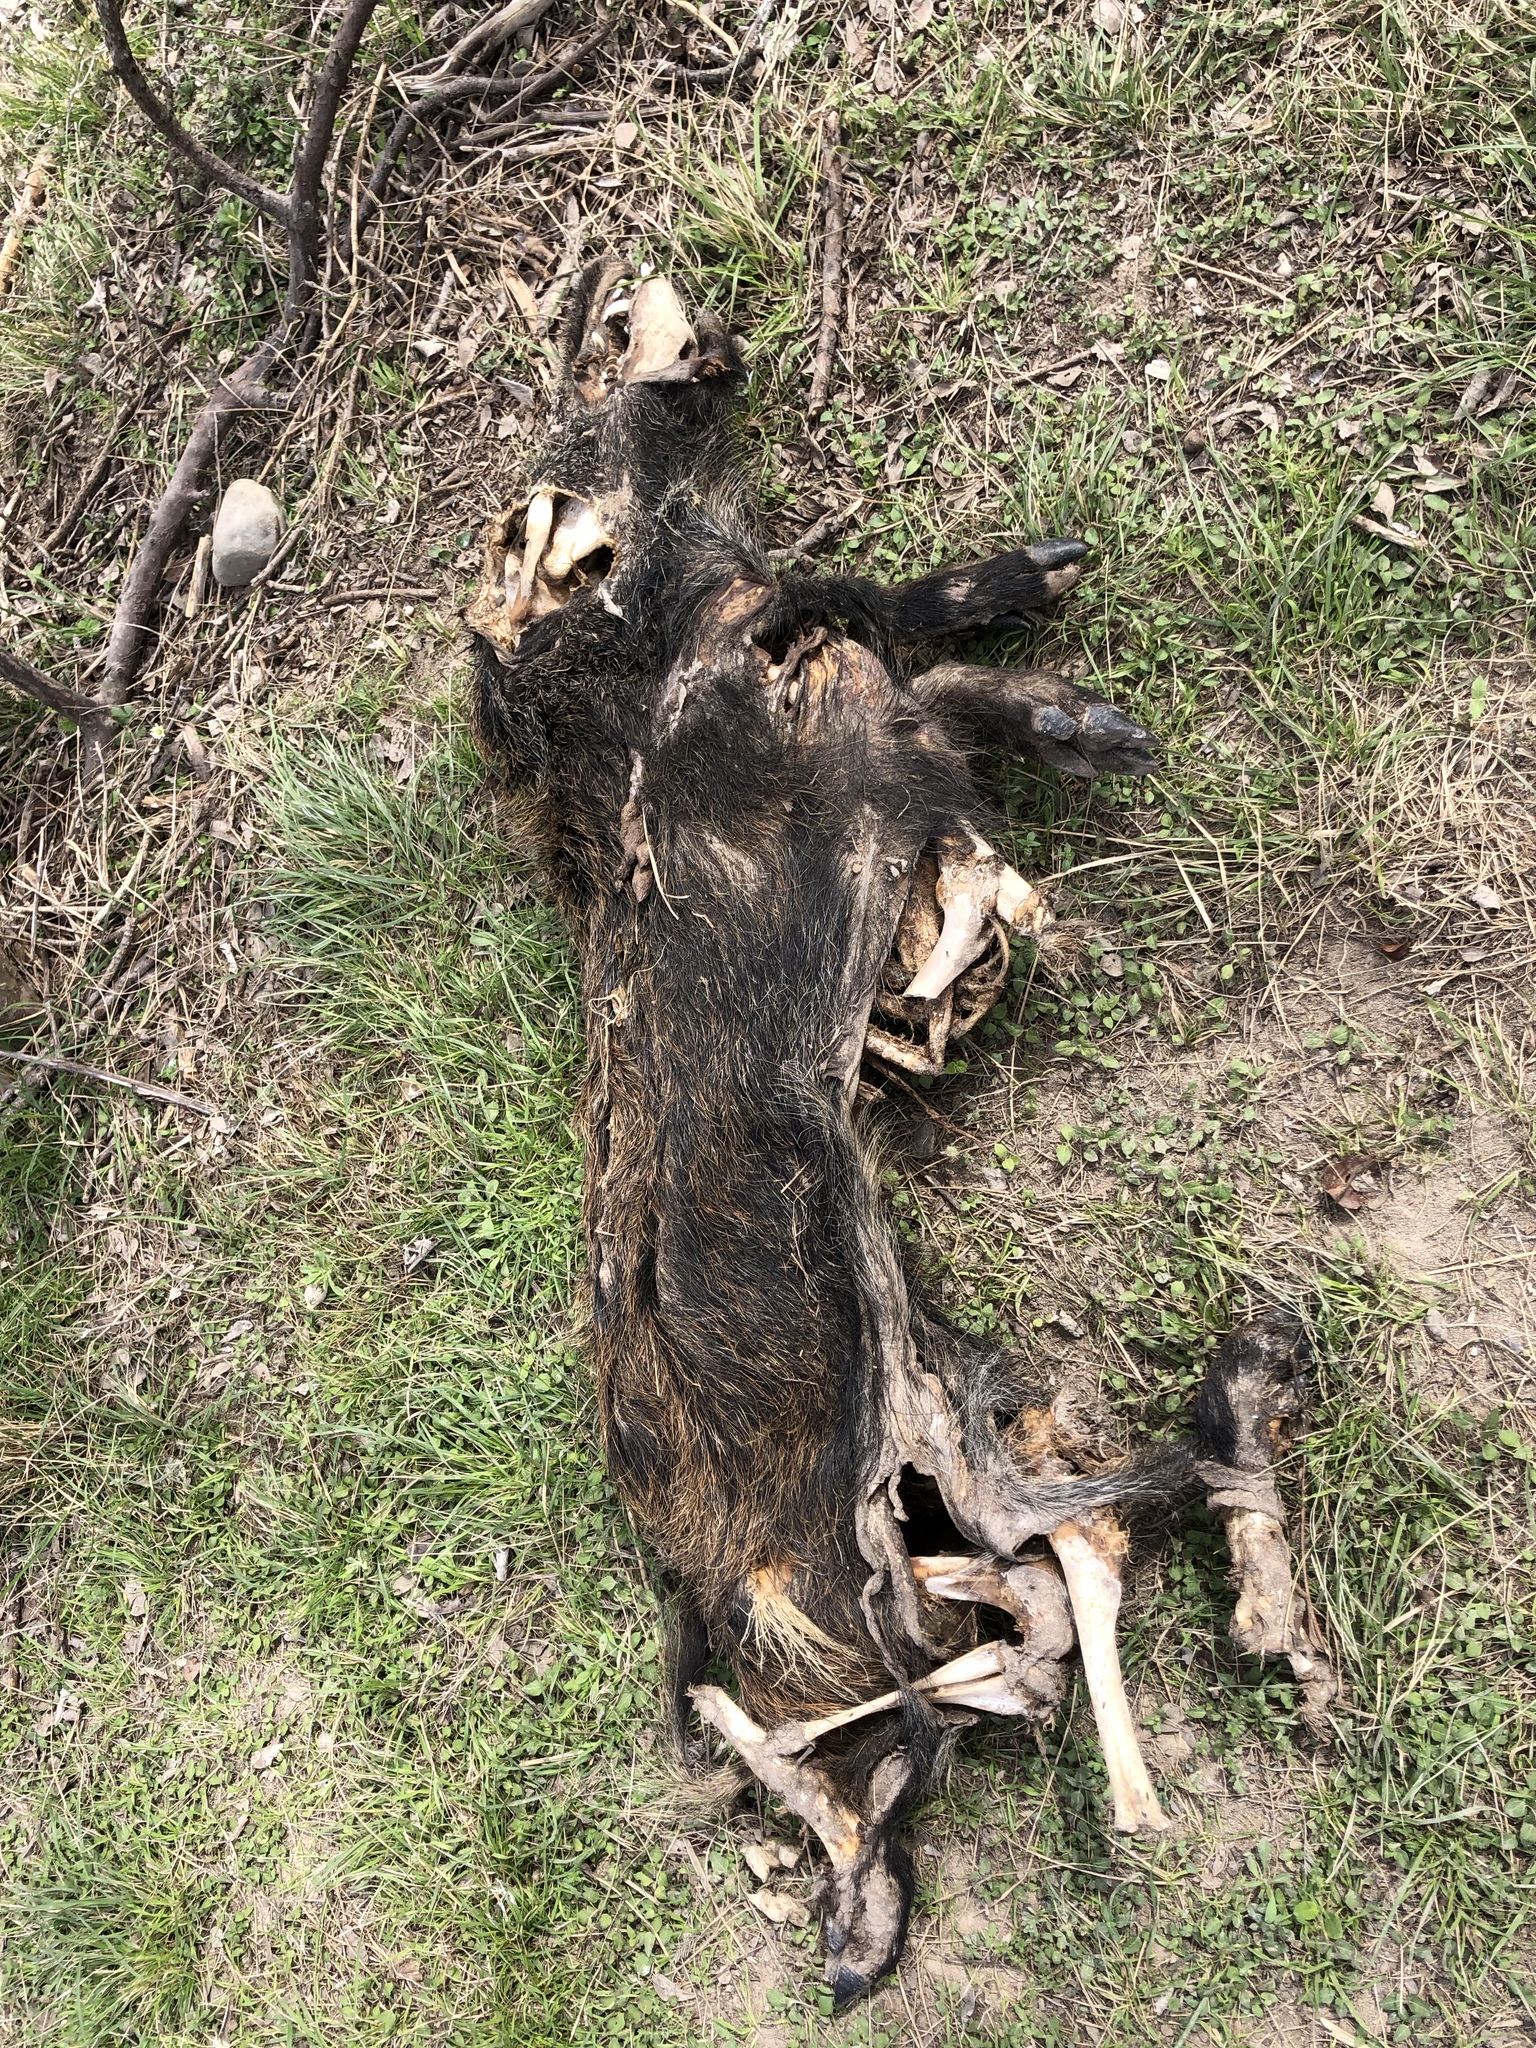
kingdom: Animalia
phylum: Chordata
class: Mammalia
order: Artiodactyla
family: Suidae
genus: Sus
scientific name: Sus scrofa
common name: Wild boar
